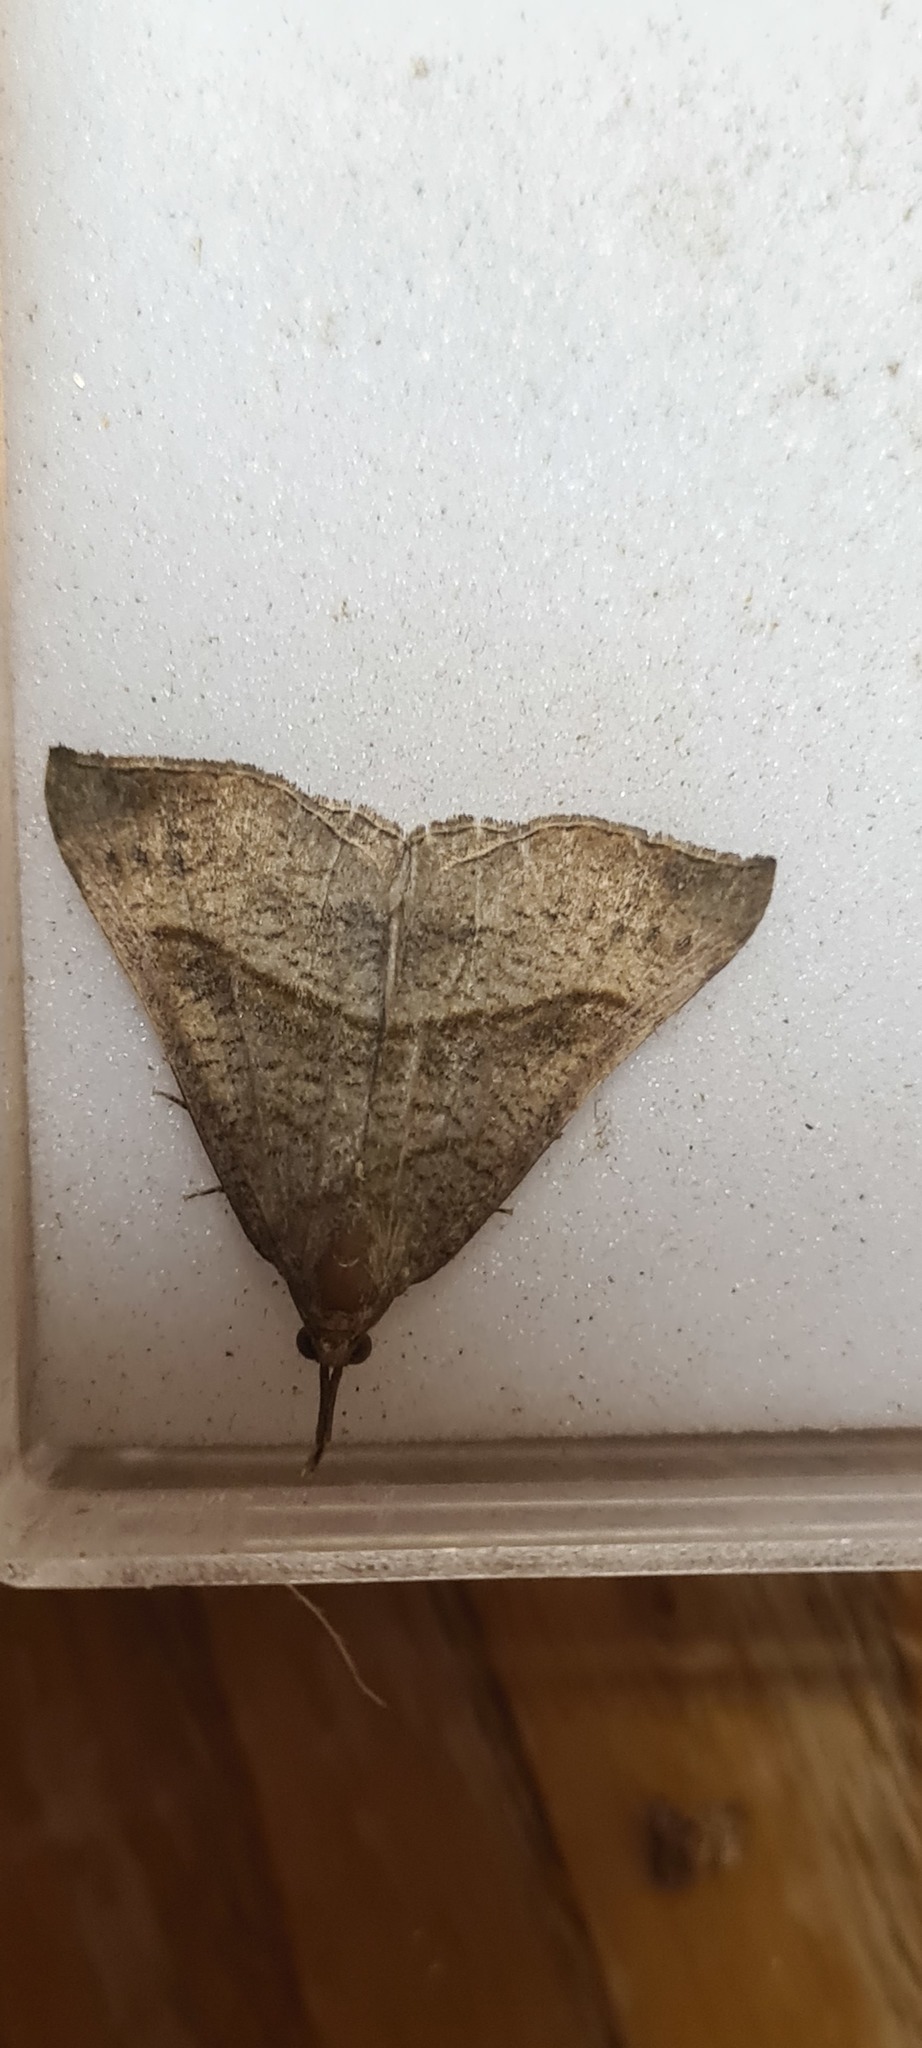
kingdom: Animalia
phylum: Arthropoda
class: Insecta
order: Lepidoptera
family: Erebidae
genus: Hypena
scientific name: Hypena proboscidalis
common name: Snout
